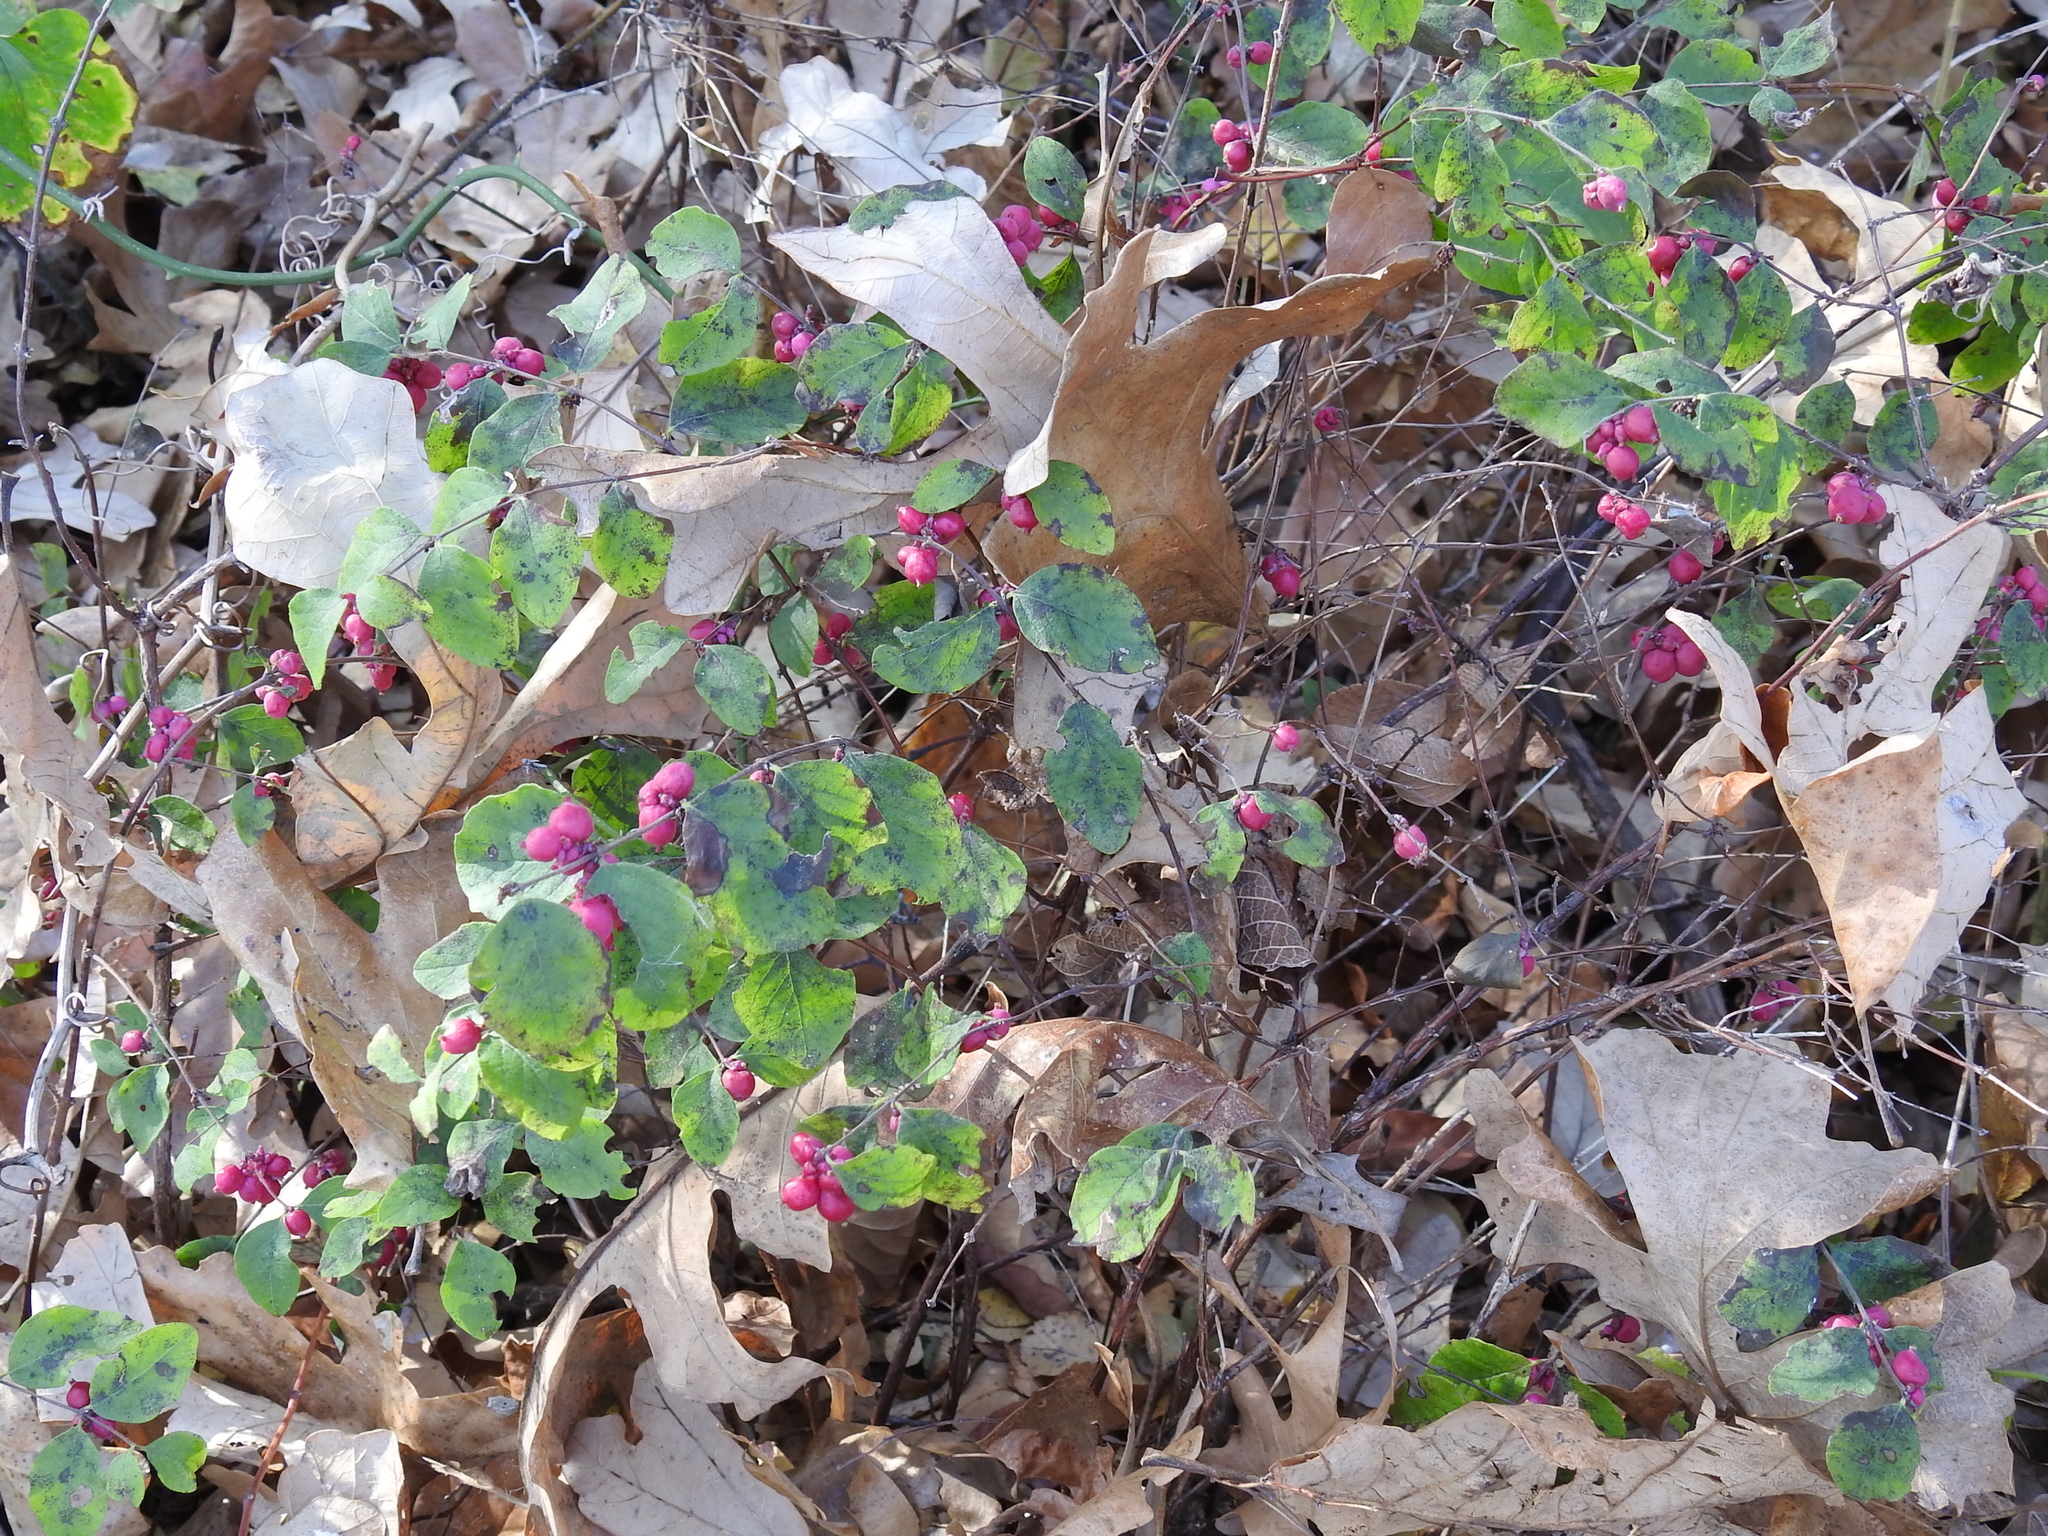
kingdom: Plantae
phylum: Tracheophyta
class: Magnoliopsida
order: Dipsacales
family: Caprifoliaceae
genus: Symphoricarpos
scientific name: Symphoricarpos orbiculatus
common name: Coralberry
